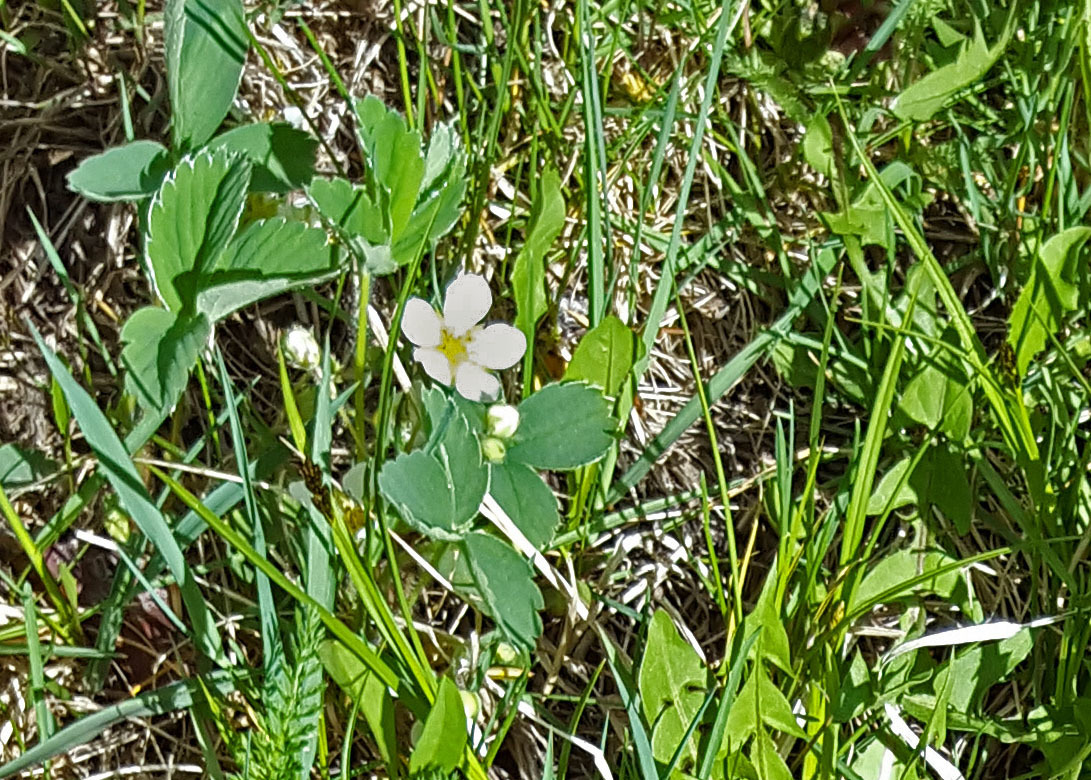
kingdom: Plantae
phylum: Tracheophyta
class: Magnoliopsida
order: Rosales
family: Rosaceae
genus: Fragaria
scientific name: Fragaria virginiana
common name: Thickleaved wild strawberry
